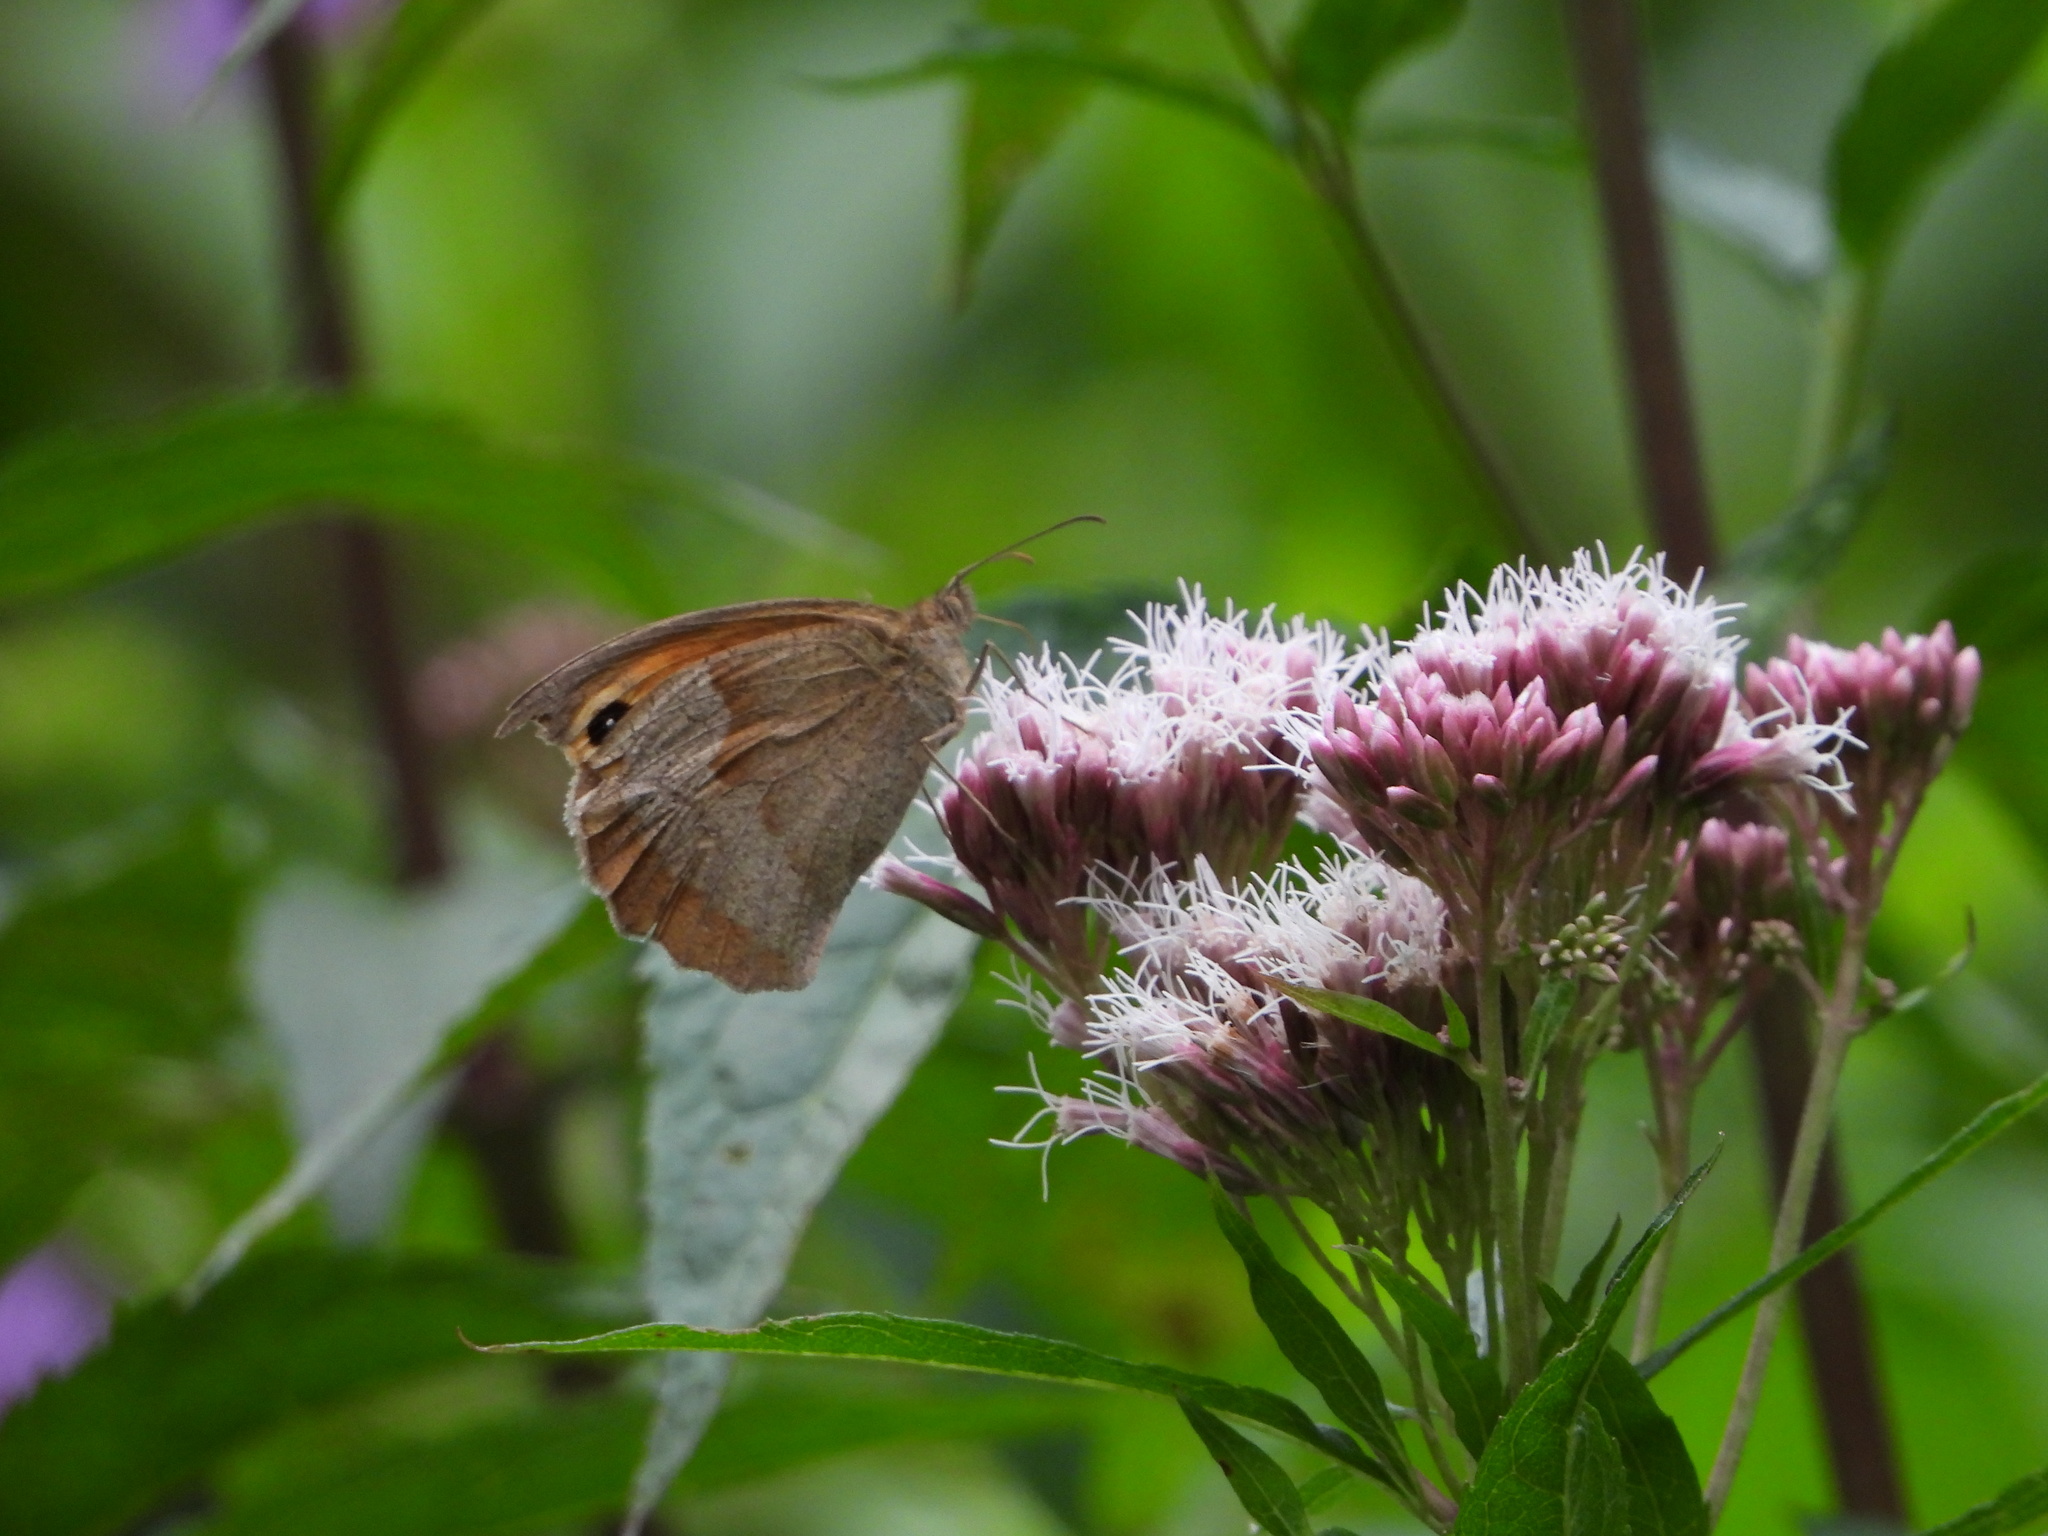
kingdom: Animalia
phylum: Arthropoda
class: Insecta
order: Lepidoptera
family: Nymphalidae
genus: Maniola
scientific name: Maniola jurtina
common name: Meadow brown
